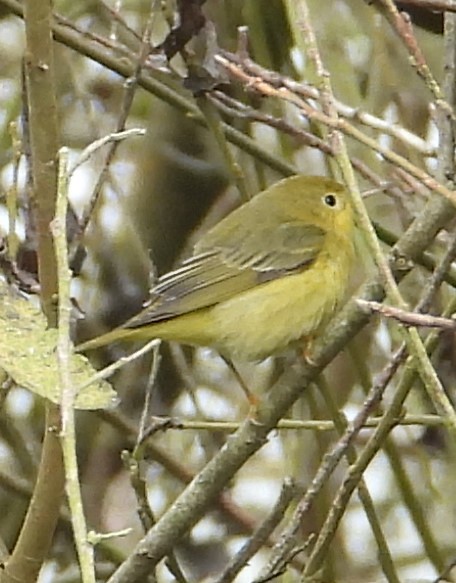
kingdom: Animalia
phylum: Chordata
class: Aves
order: Passeriformes
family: Parulidae
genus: Setophaga
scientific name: Setophaga petechia
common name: Yellow warbler
